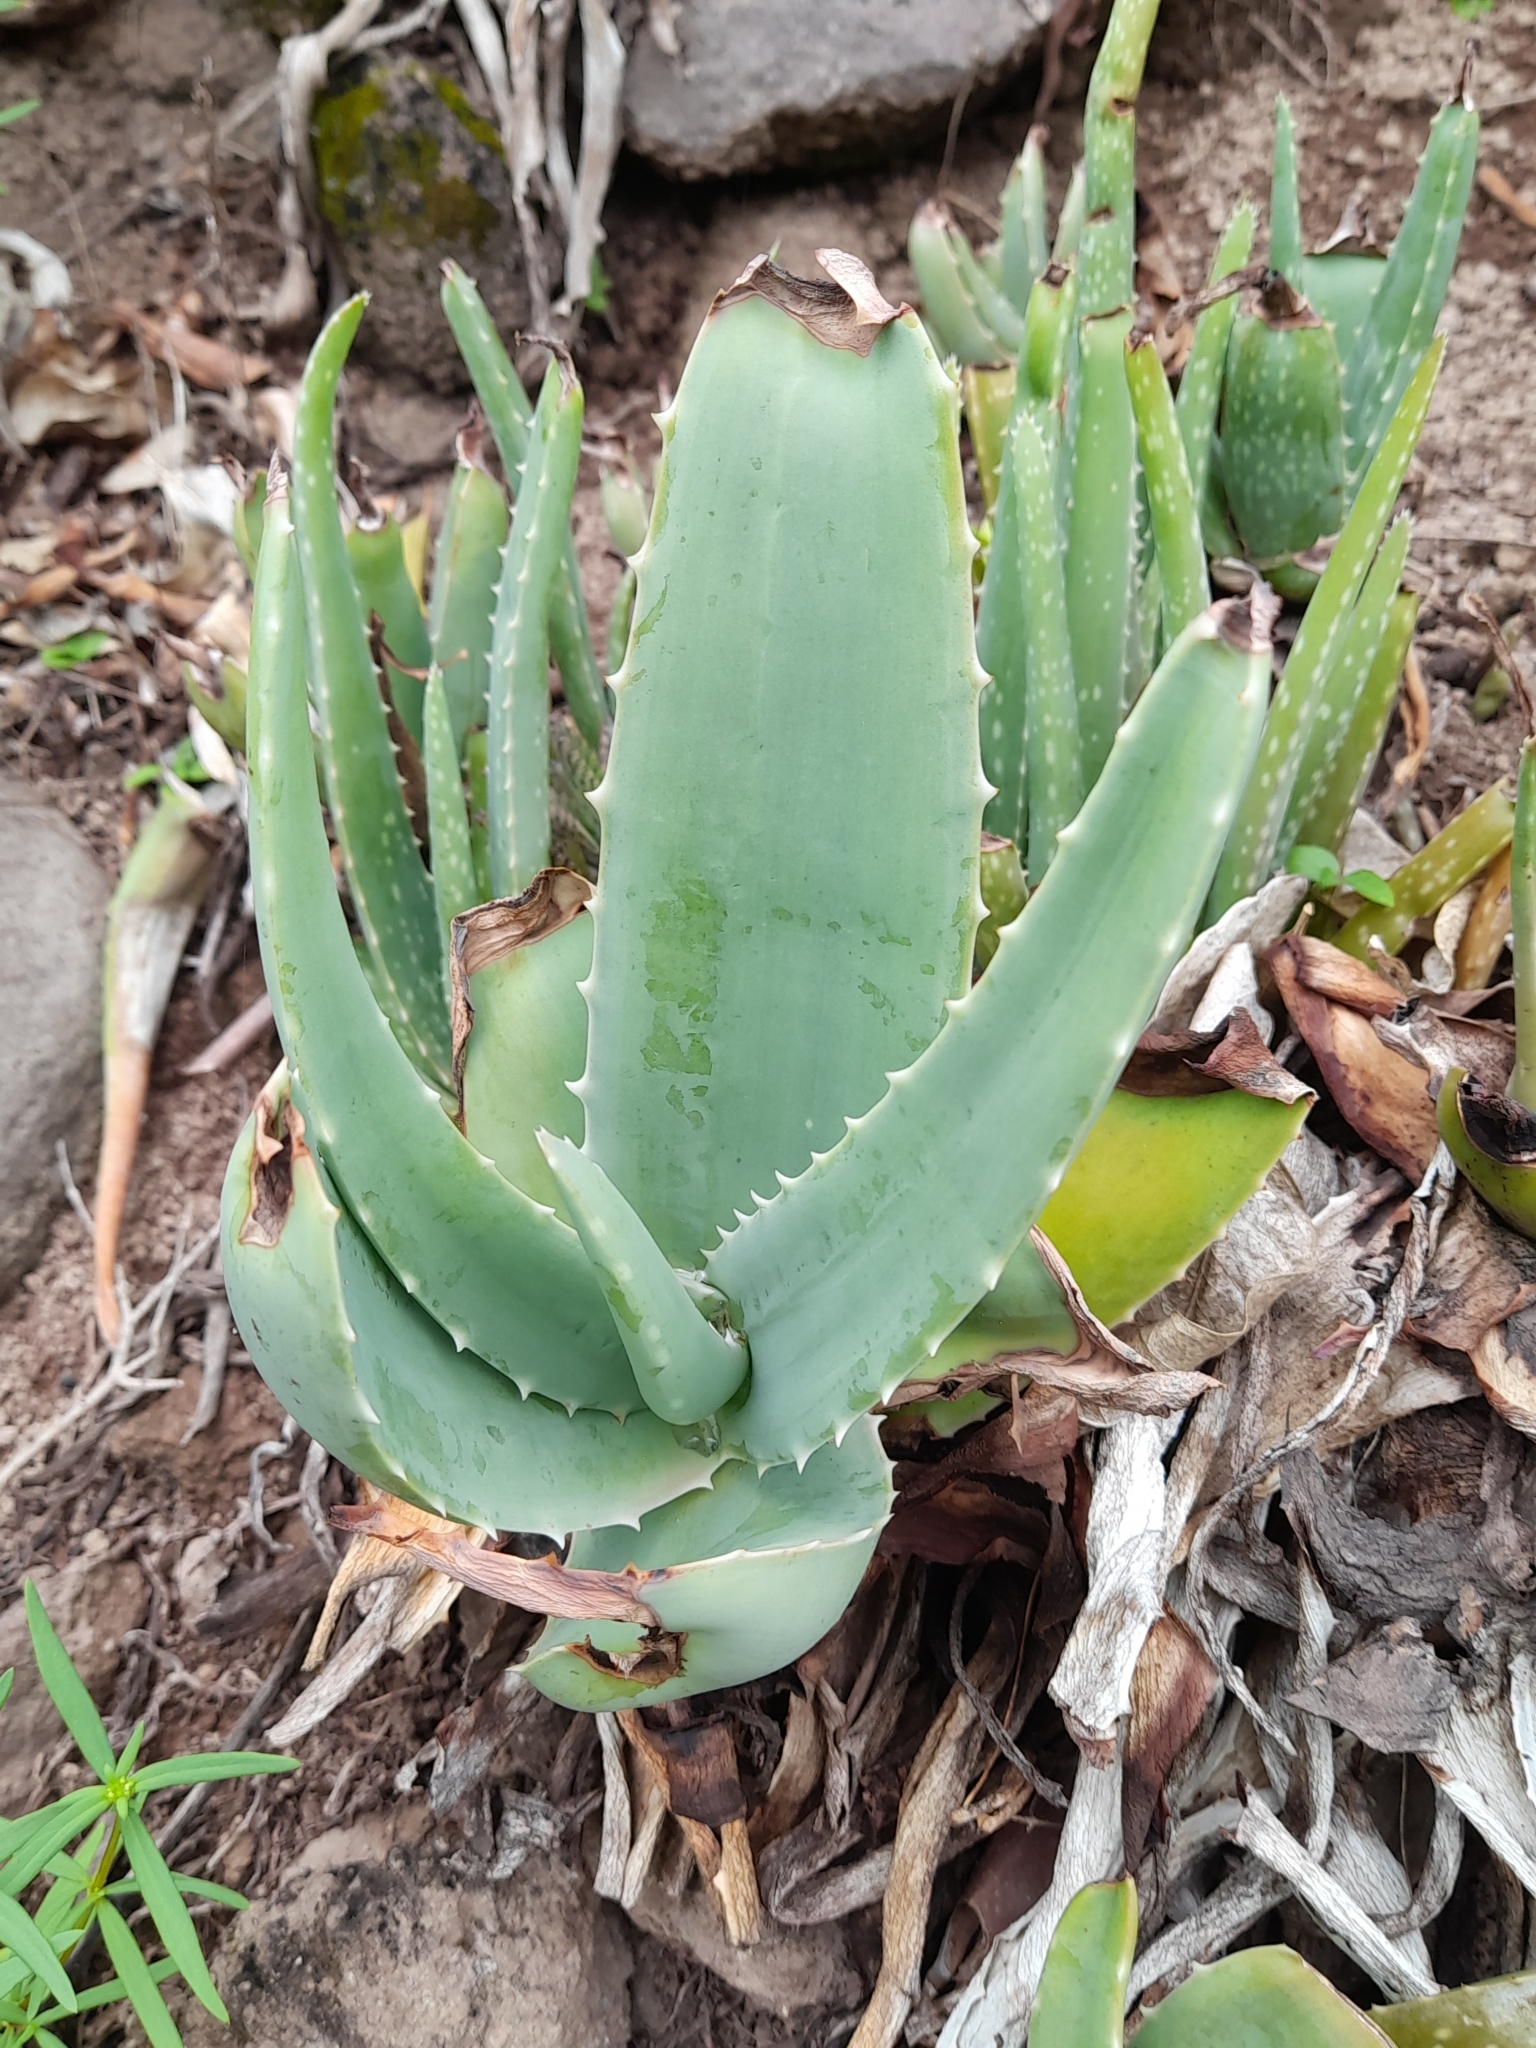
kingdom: Plantae
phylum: Tracheophyta
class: Liliopsida
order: Asparagales
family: Asphodelaceae
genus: Aloe
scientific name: Aloe vera
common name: Barbados aloe
